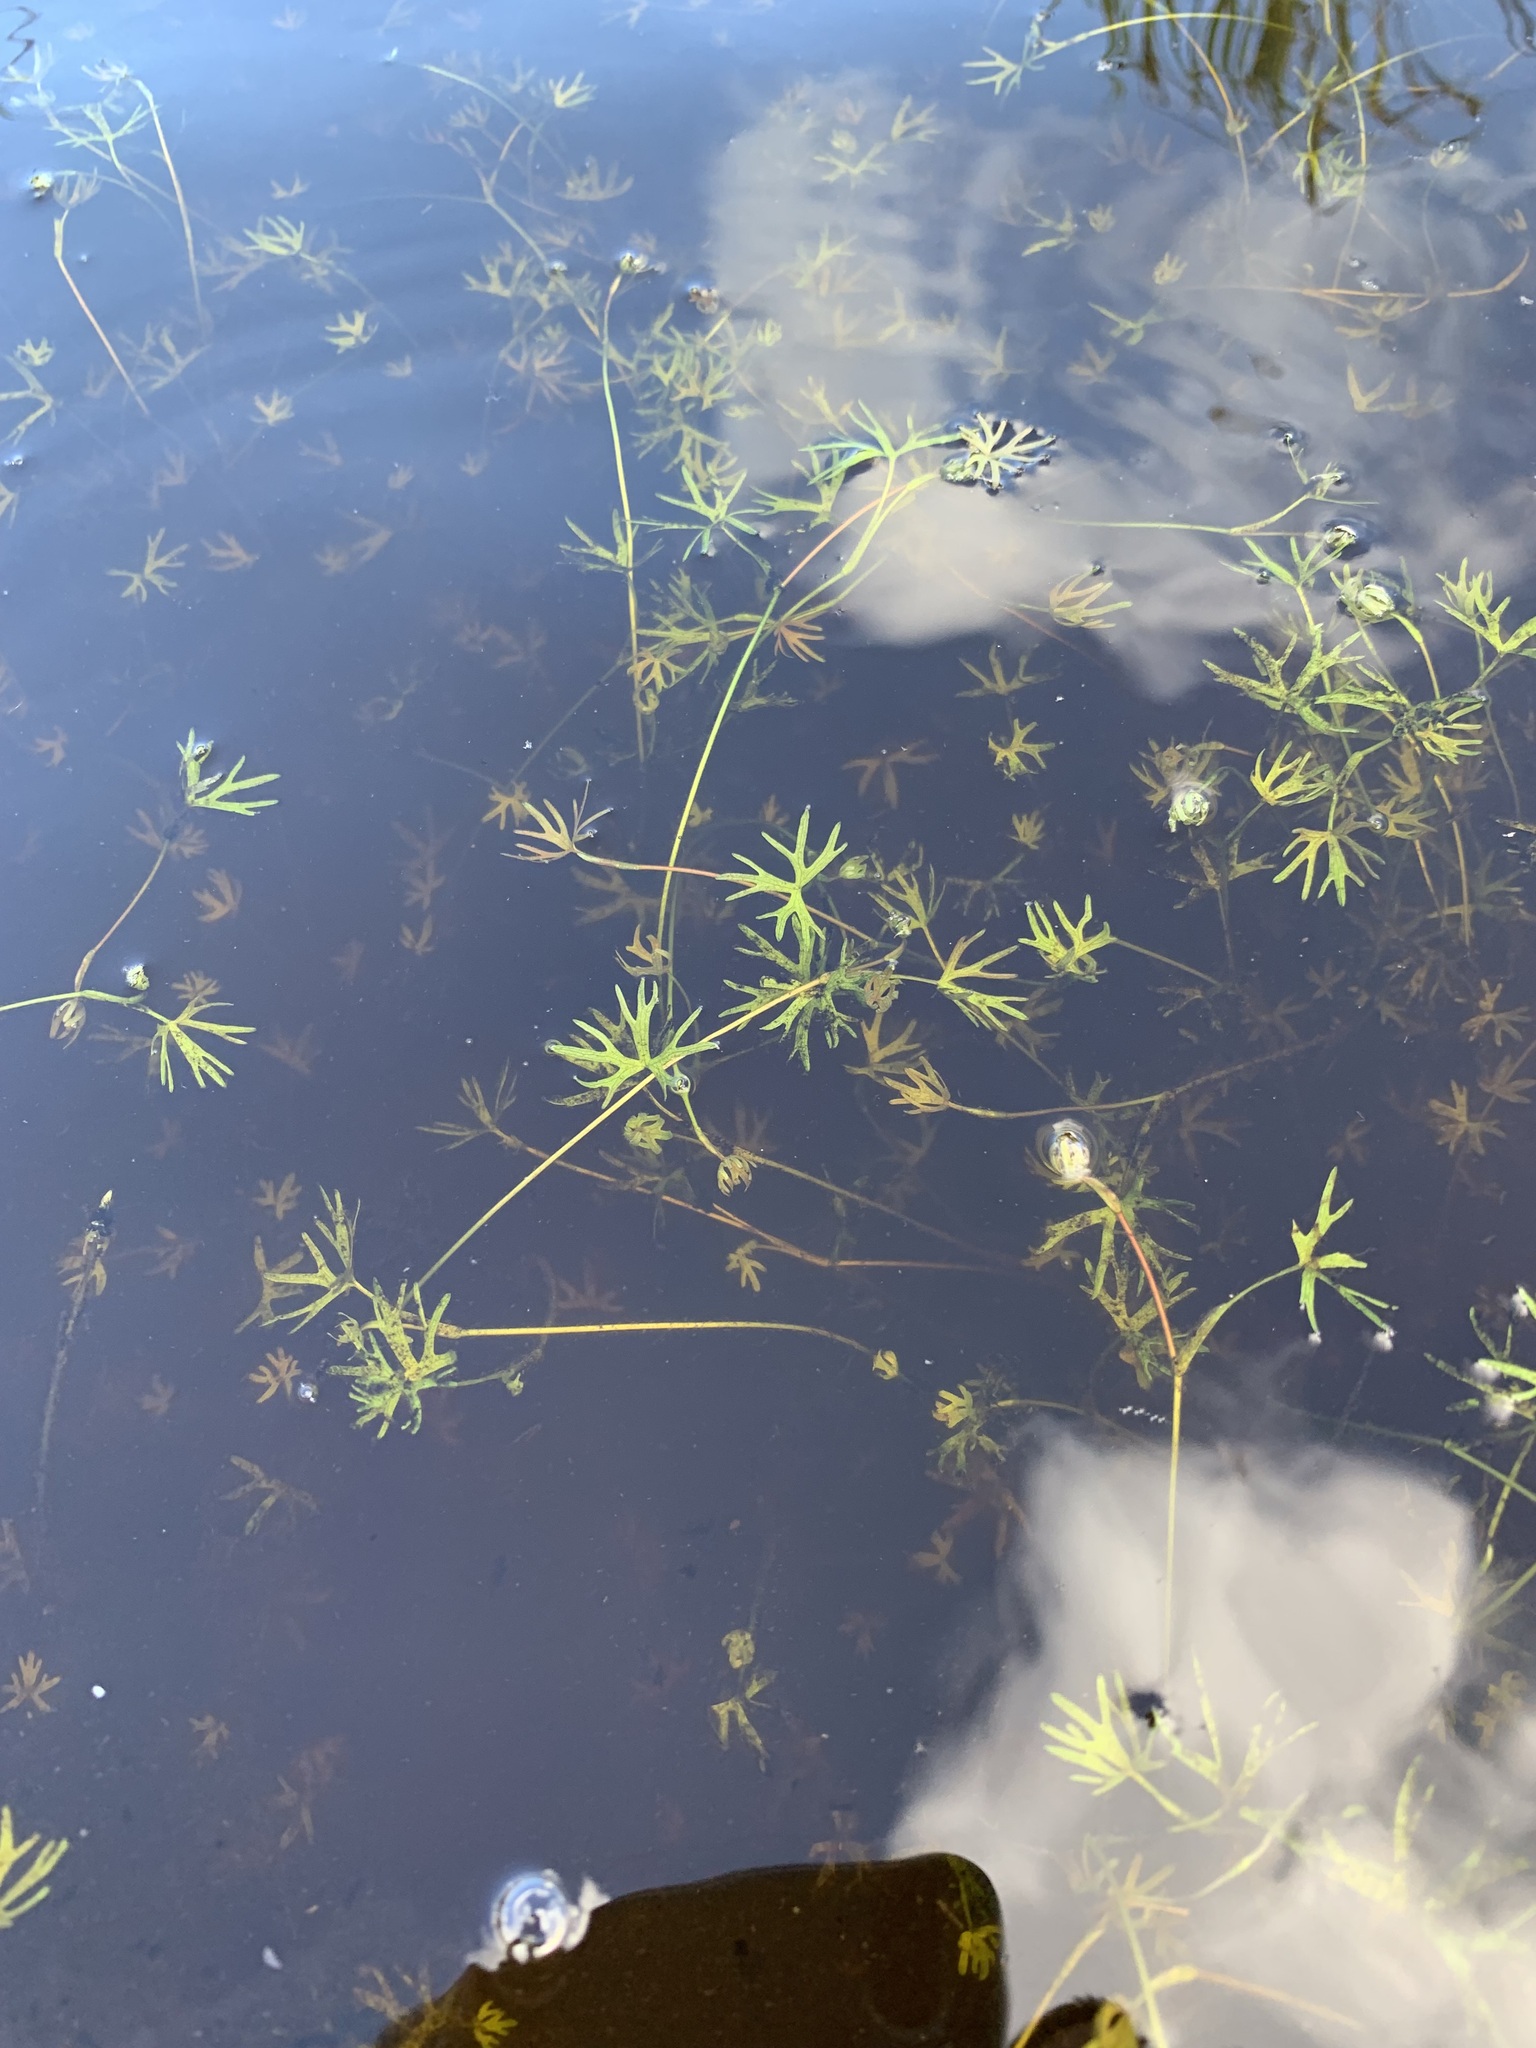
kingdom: Plantae
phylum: Tracheophyta
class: Magnoliopsida
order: Ranunculales
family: Ranunculaceae
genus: Ranunculus
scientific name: Ranunculus gmelinii
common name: Gmelin's buttercup
